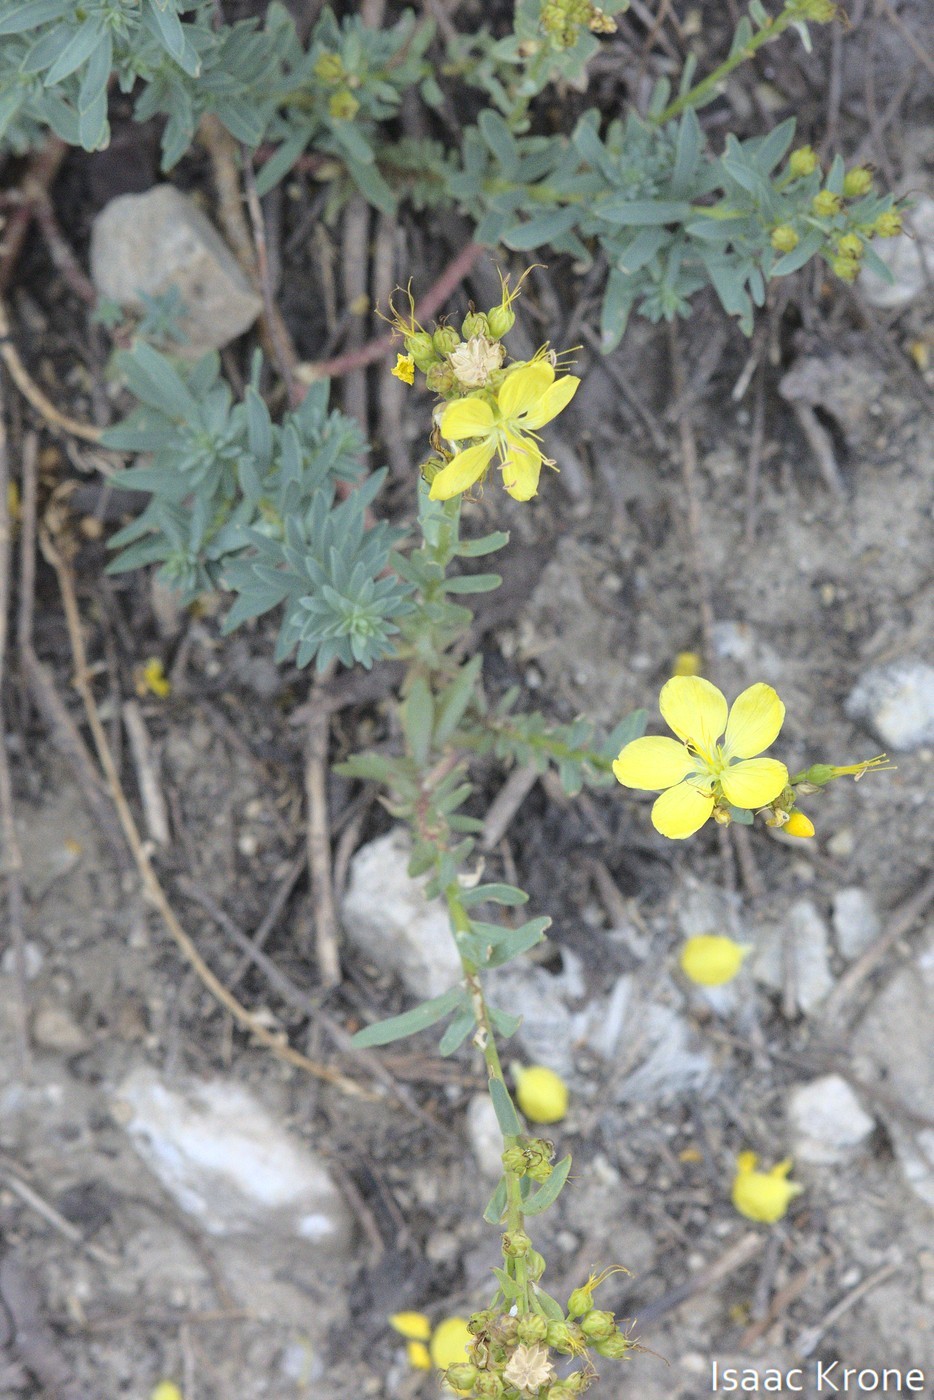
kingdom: Plantae
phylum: Tracheophyta
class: Magnoliopsida
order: Malpighiales
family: Linaceae
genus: Linum
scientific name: Linum kingii
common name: King's yellow flax
